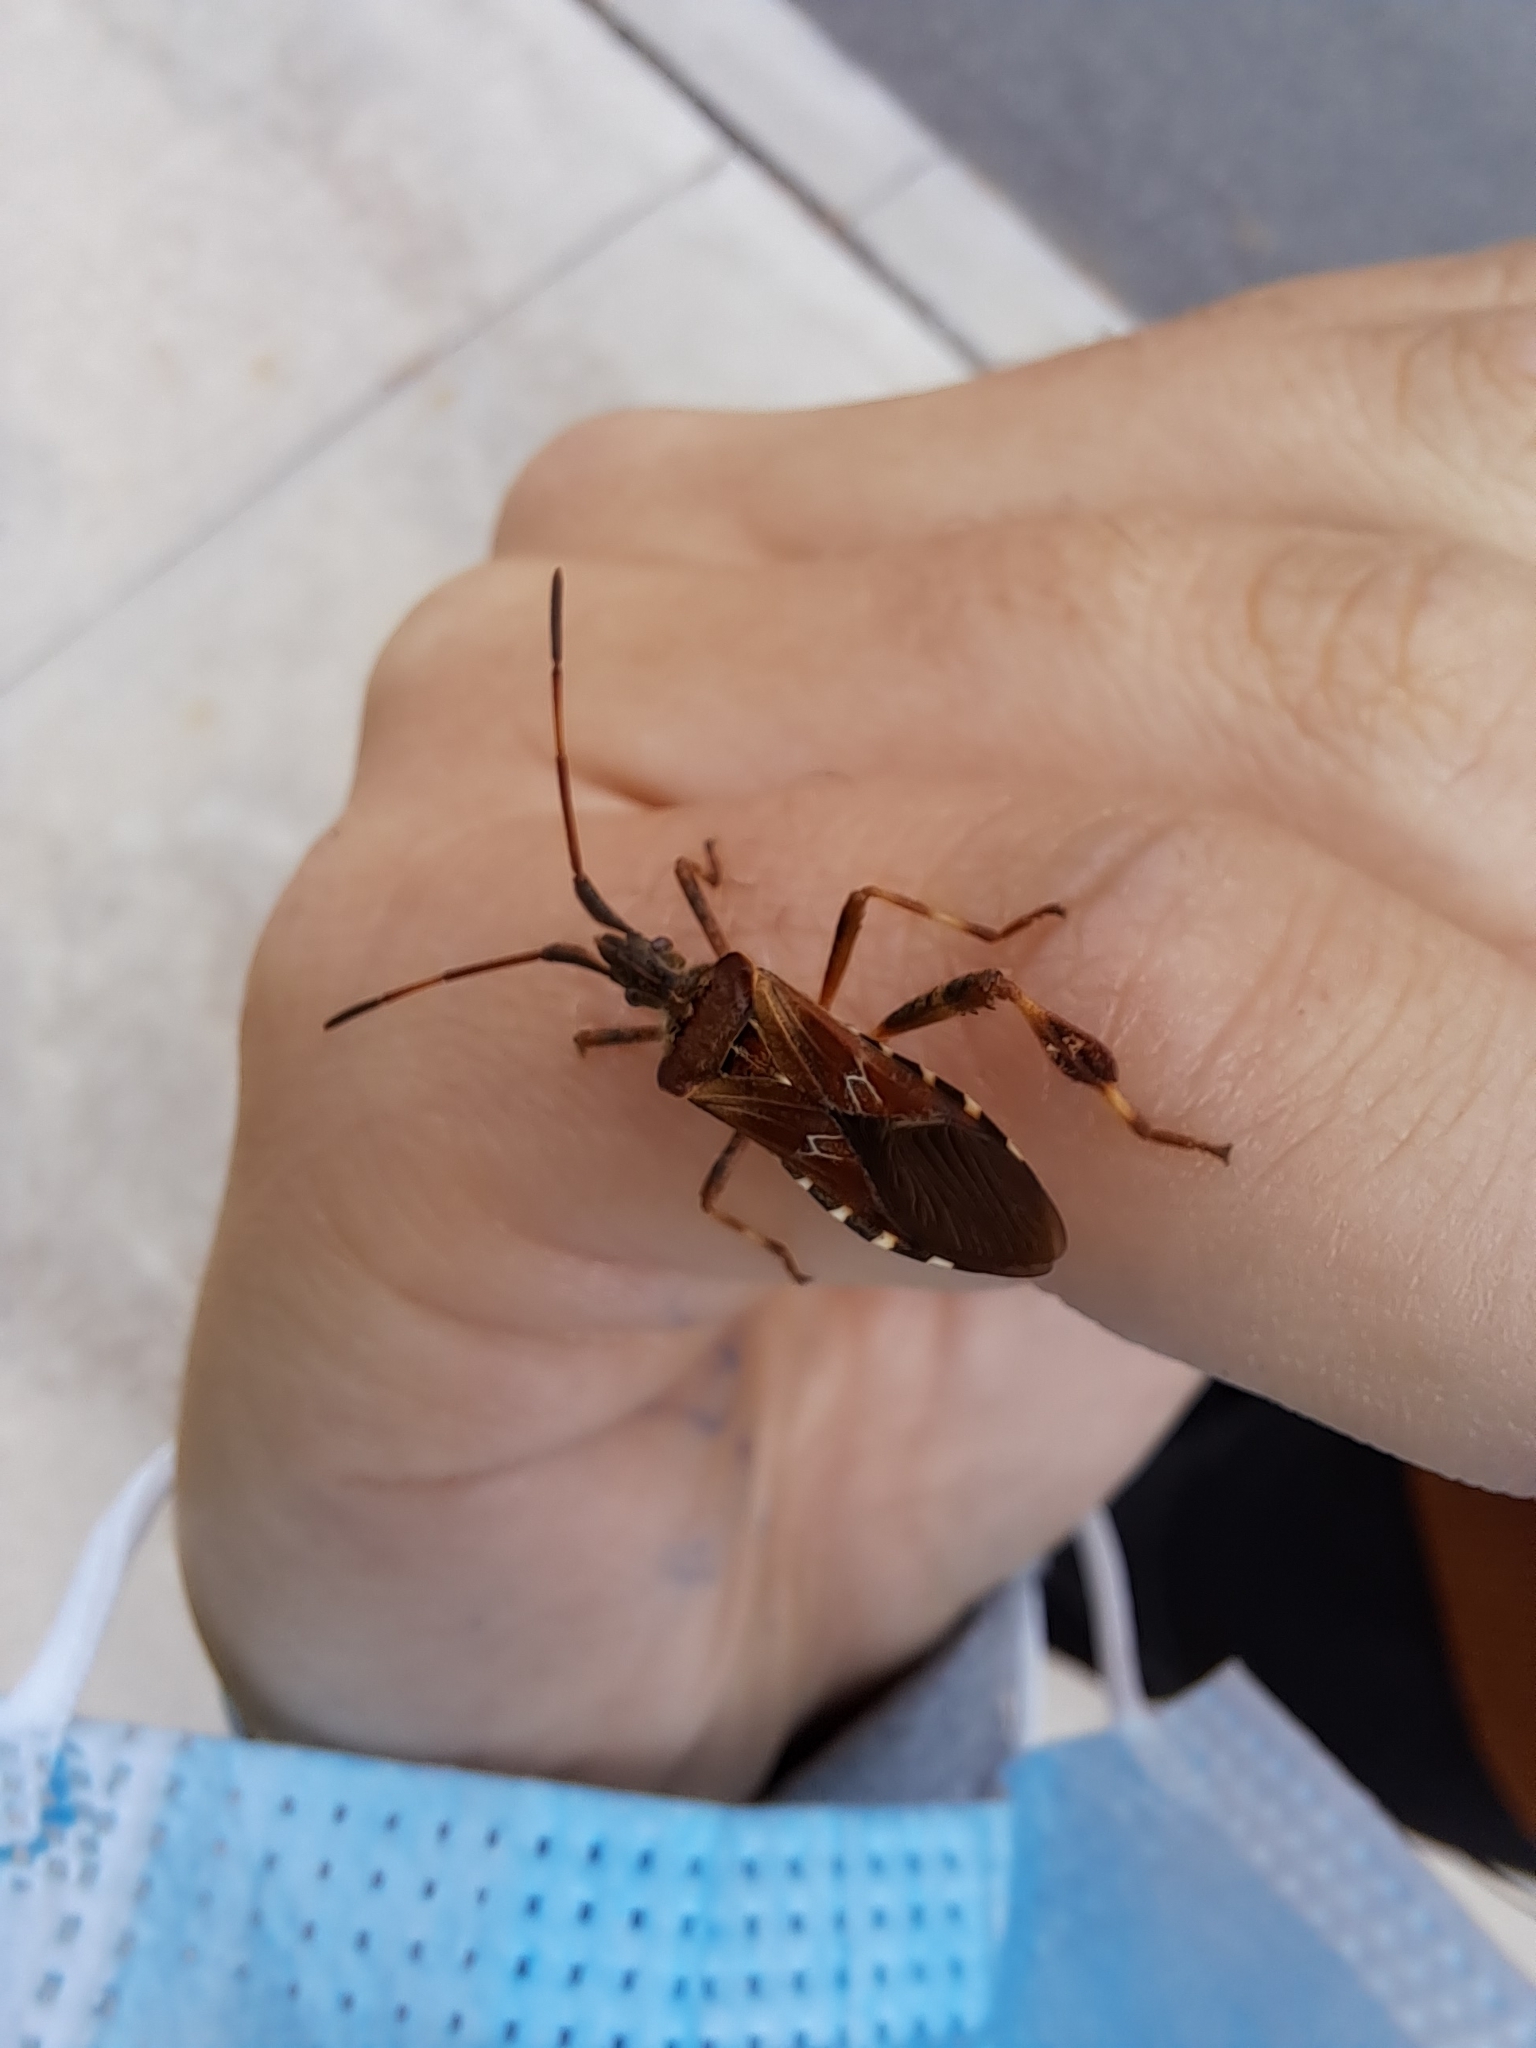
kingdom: Animalia
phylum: Arthropoda
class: Insecta
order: Hemiptera
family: Coreidae
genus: Leptoglossus
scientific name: Leptoglossus occidentalis
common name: Western conifer-seed bug
